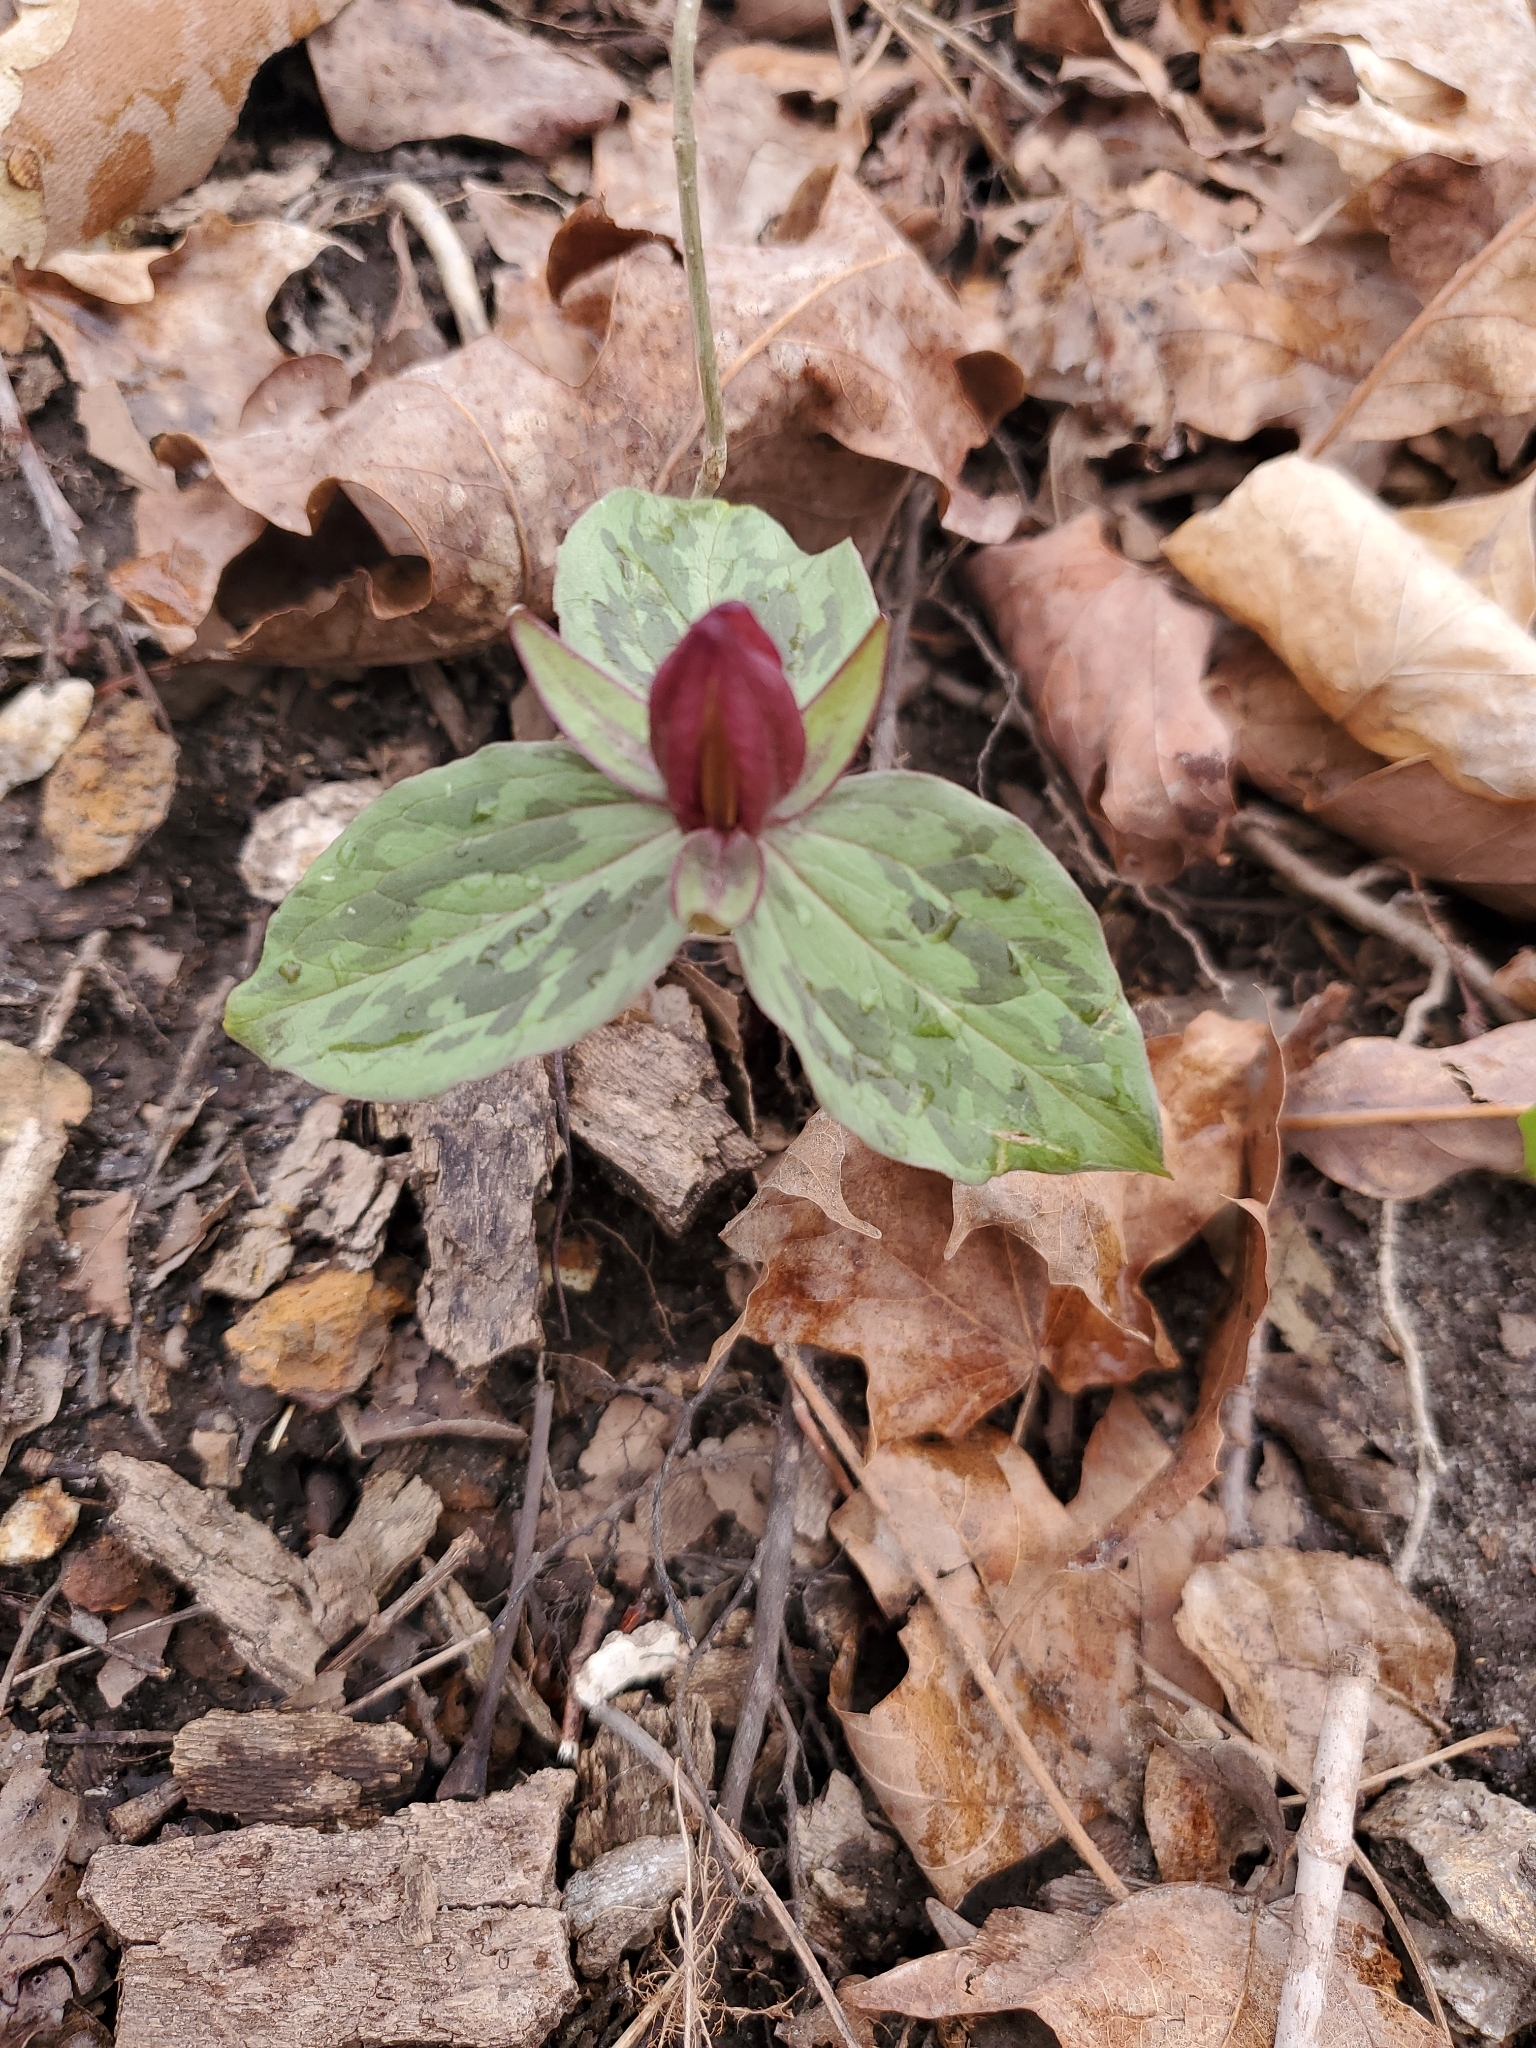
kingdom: Plantae
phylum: Tracheophyta
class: Liliopsida
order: Liliales
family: Melanthiaceae
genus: Trillium
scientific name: Trillium sessile
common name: Sessile trillium
